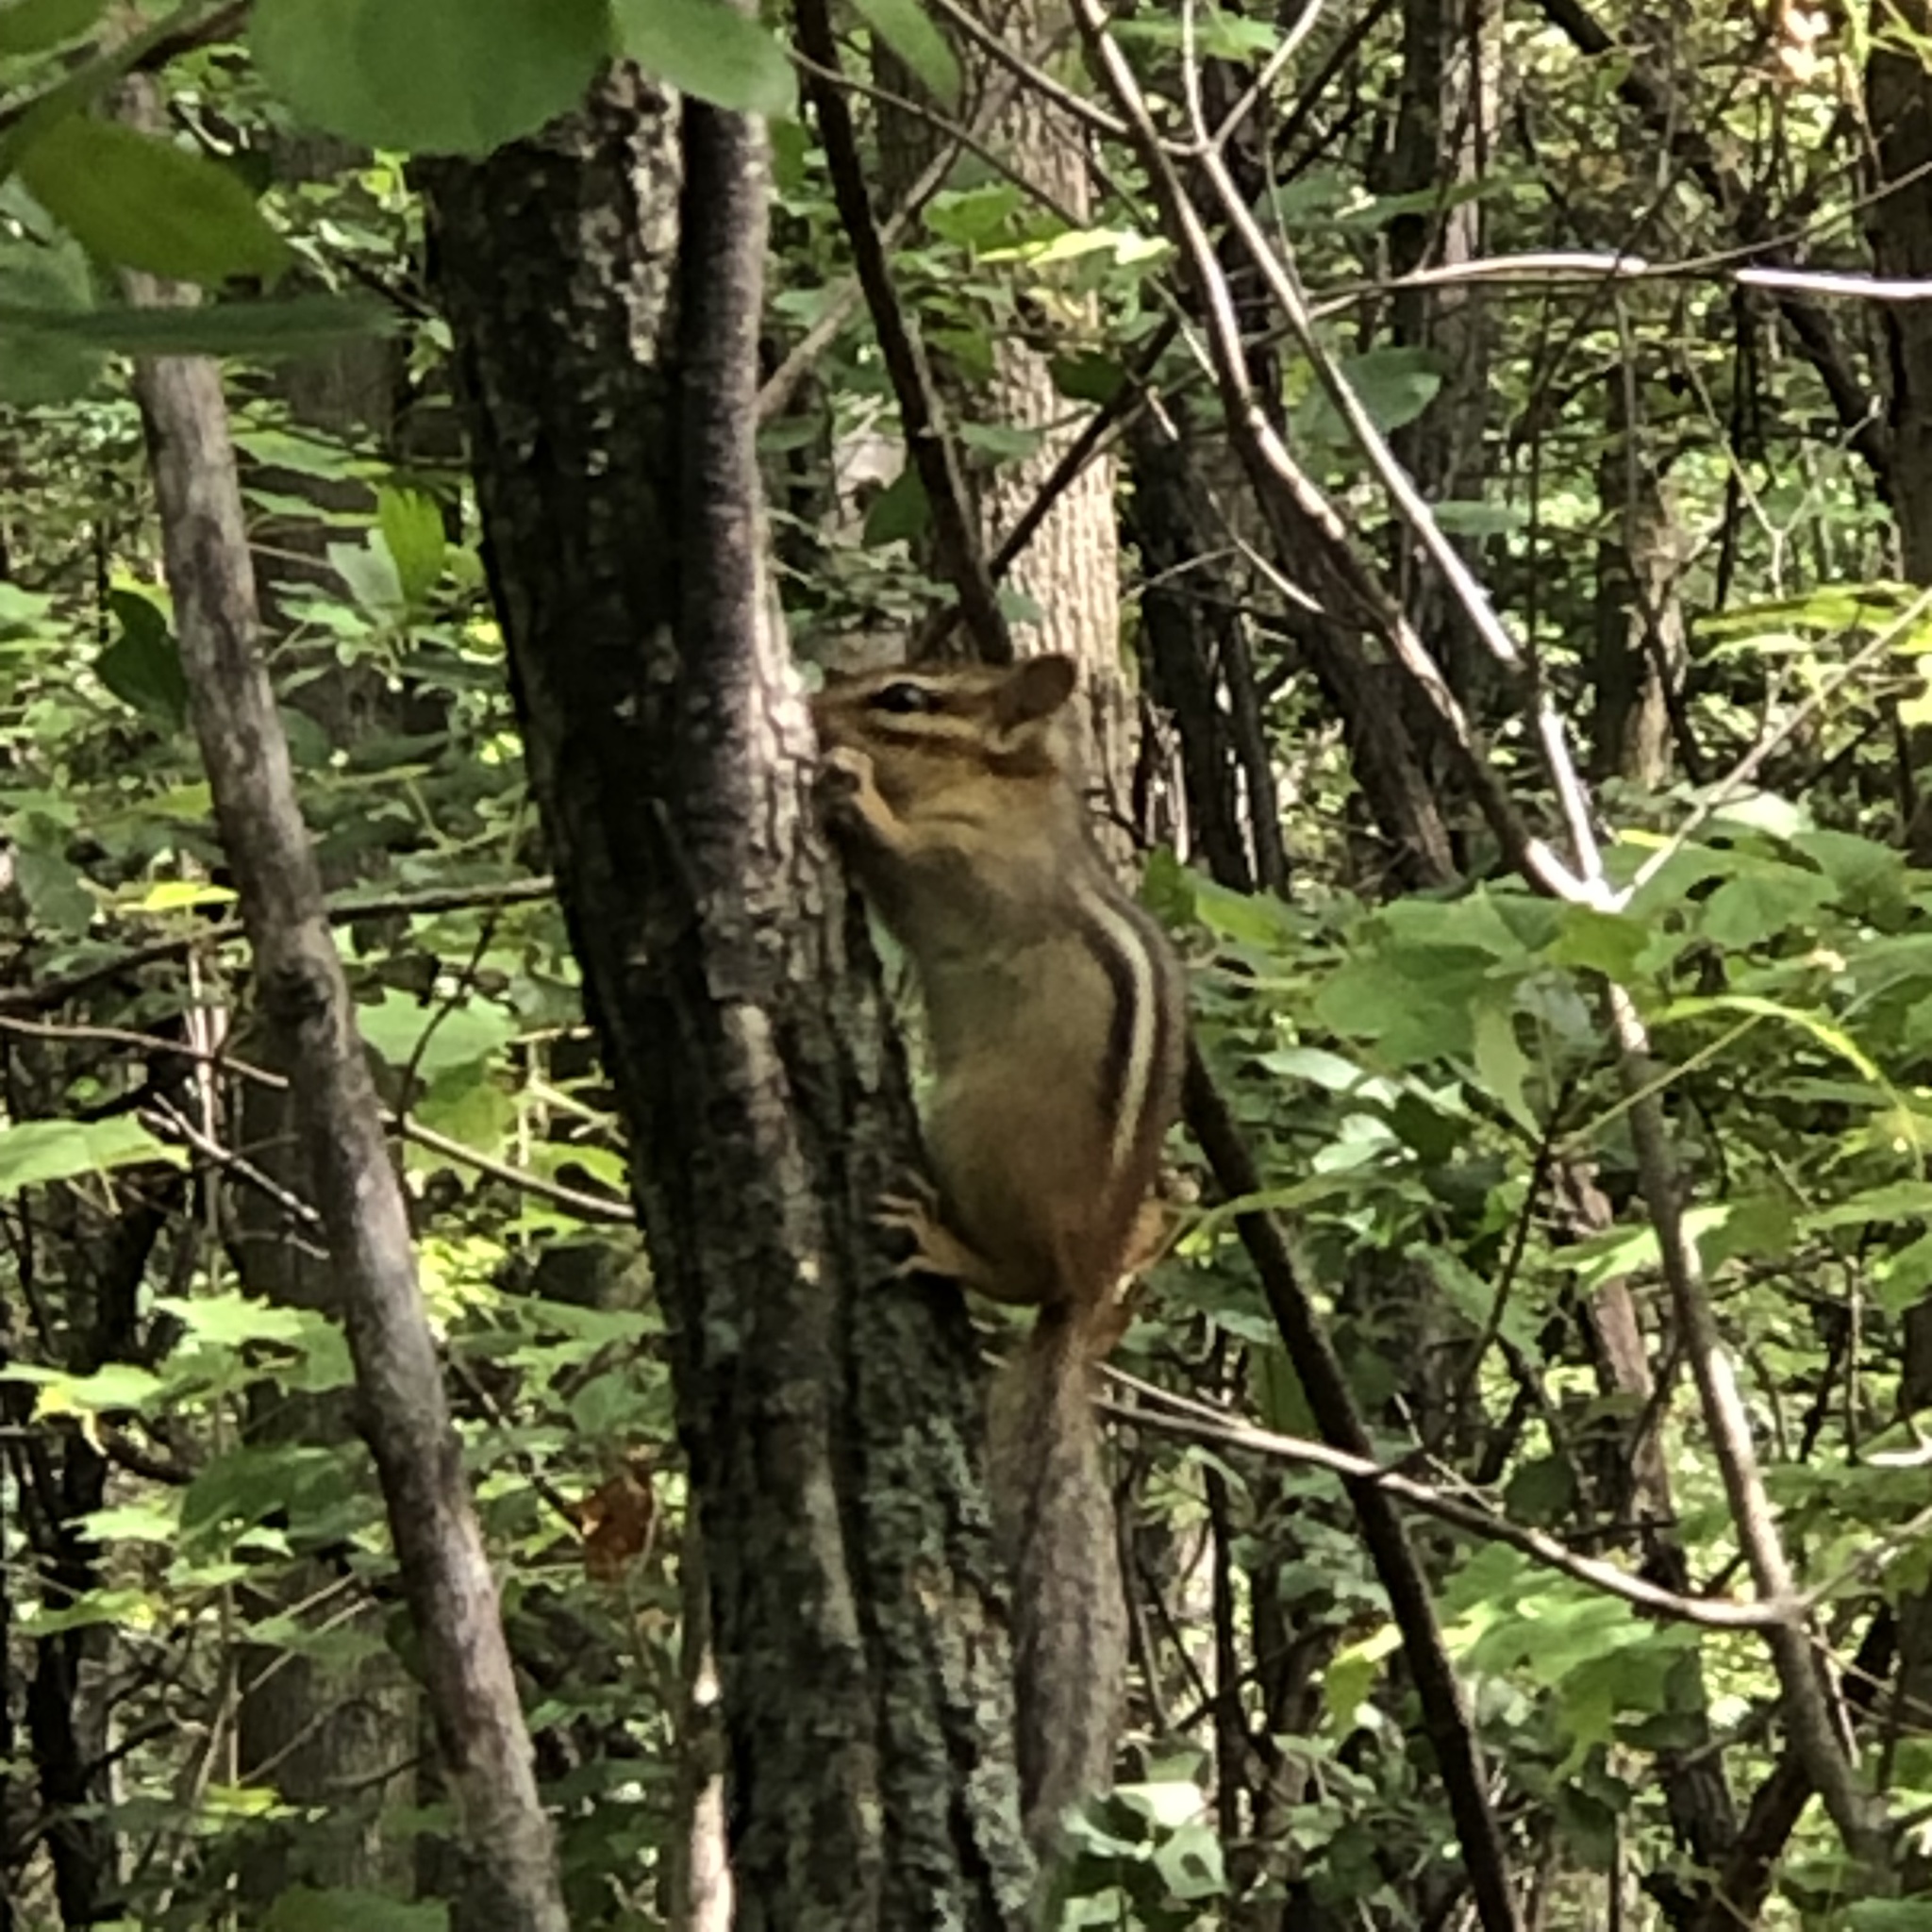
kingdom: Animalia
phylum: Chordata
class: Mammalia
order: Rodentia
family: Sciuridae
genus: Tamias
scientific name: Tamias striatus
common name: Eastern chipmunk
